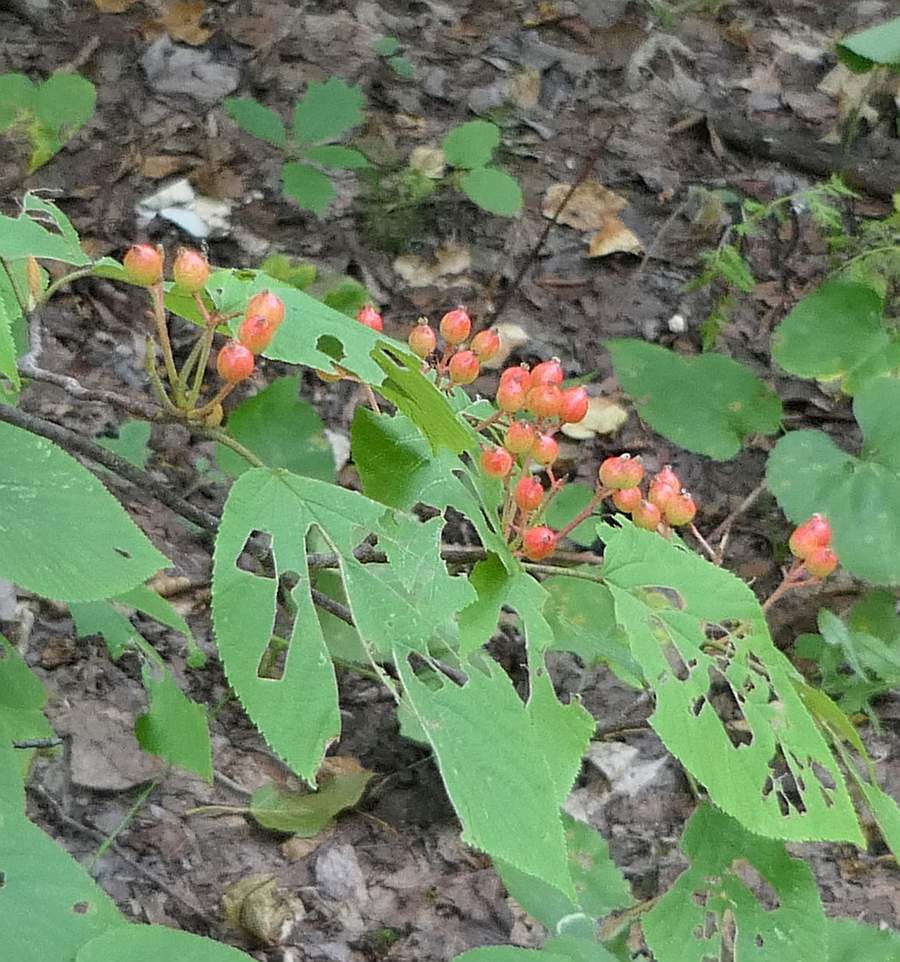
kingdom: Plantae
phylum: Tracheophyta
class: Magnoliopsida
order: Dipsacales
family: Viburnaceae
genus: Viburnum
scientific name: Viburnum lantanoides
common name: Hobblebush
